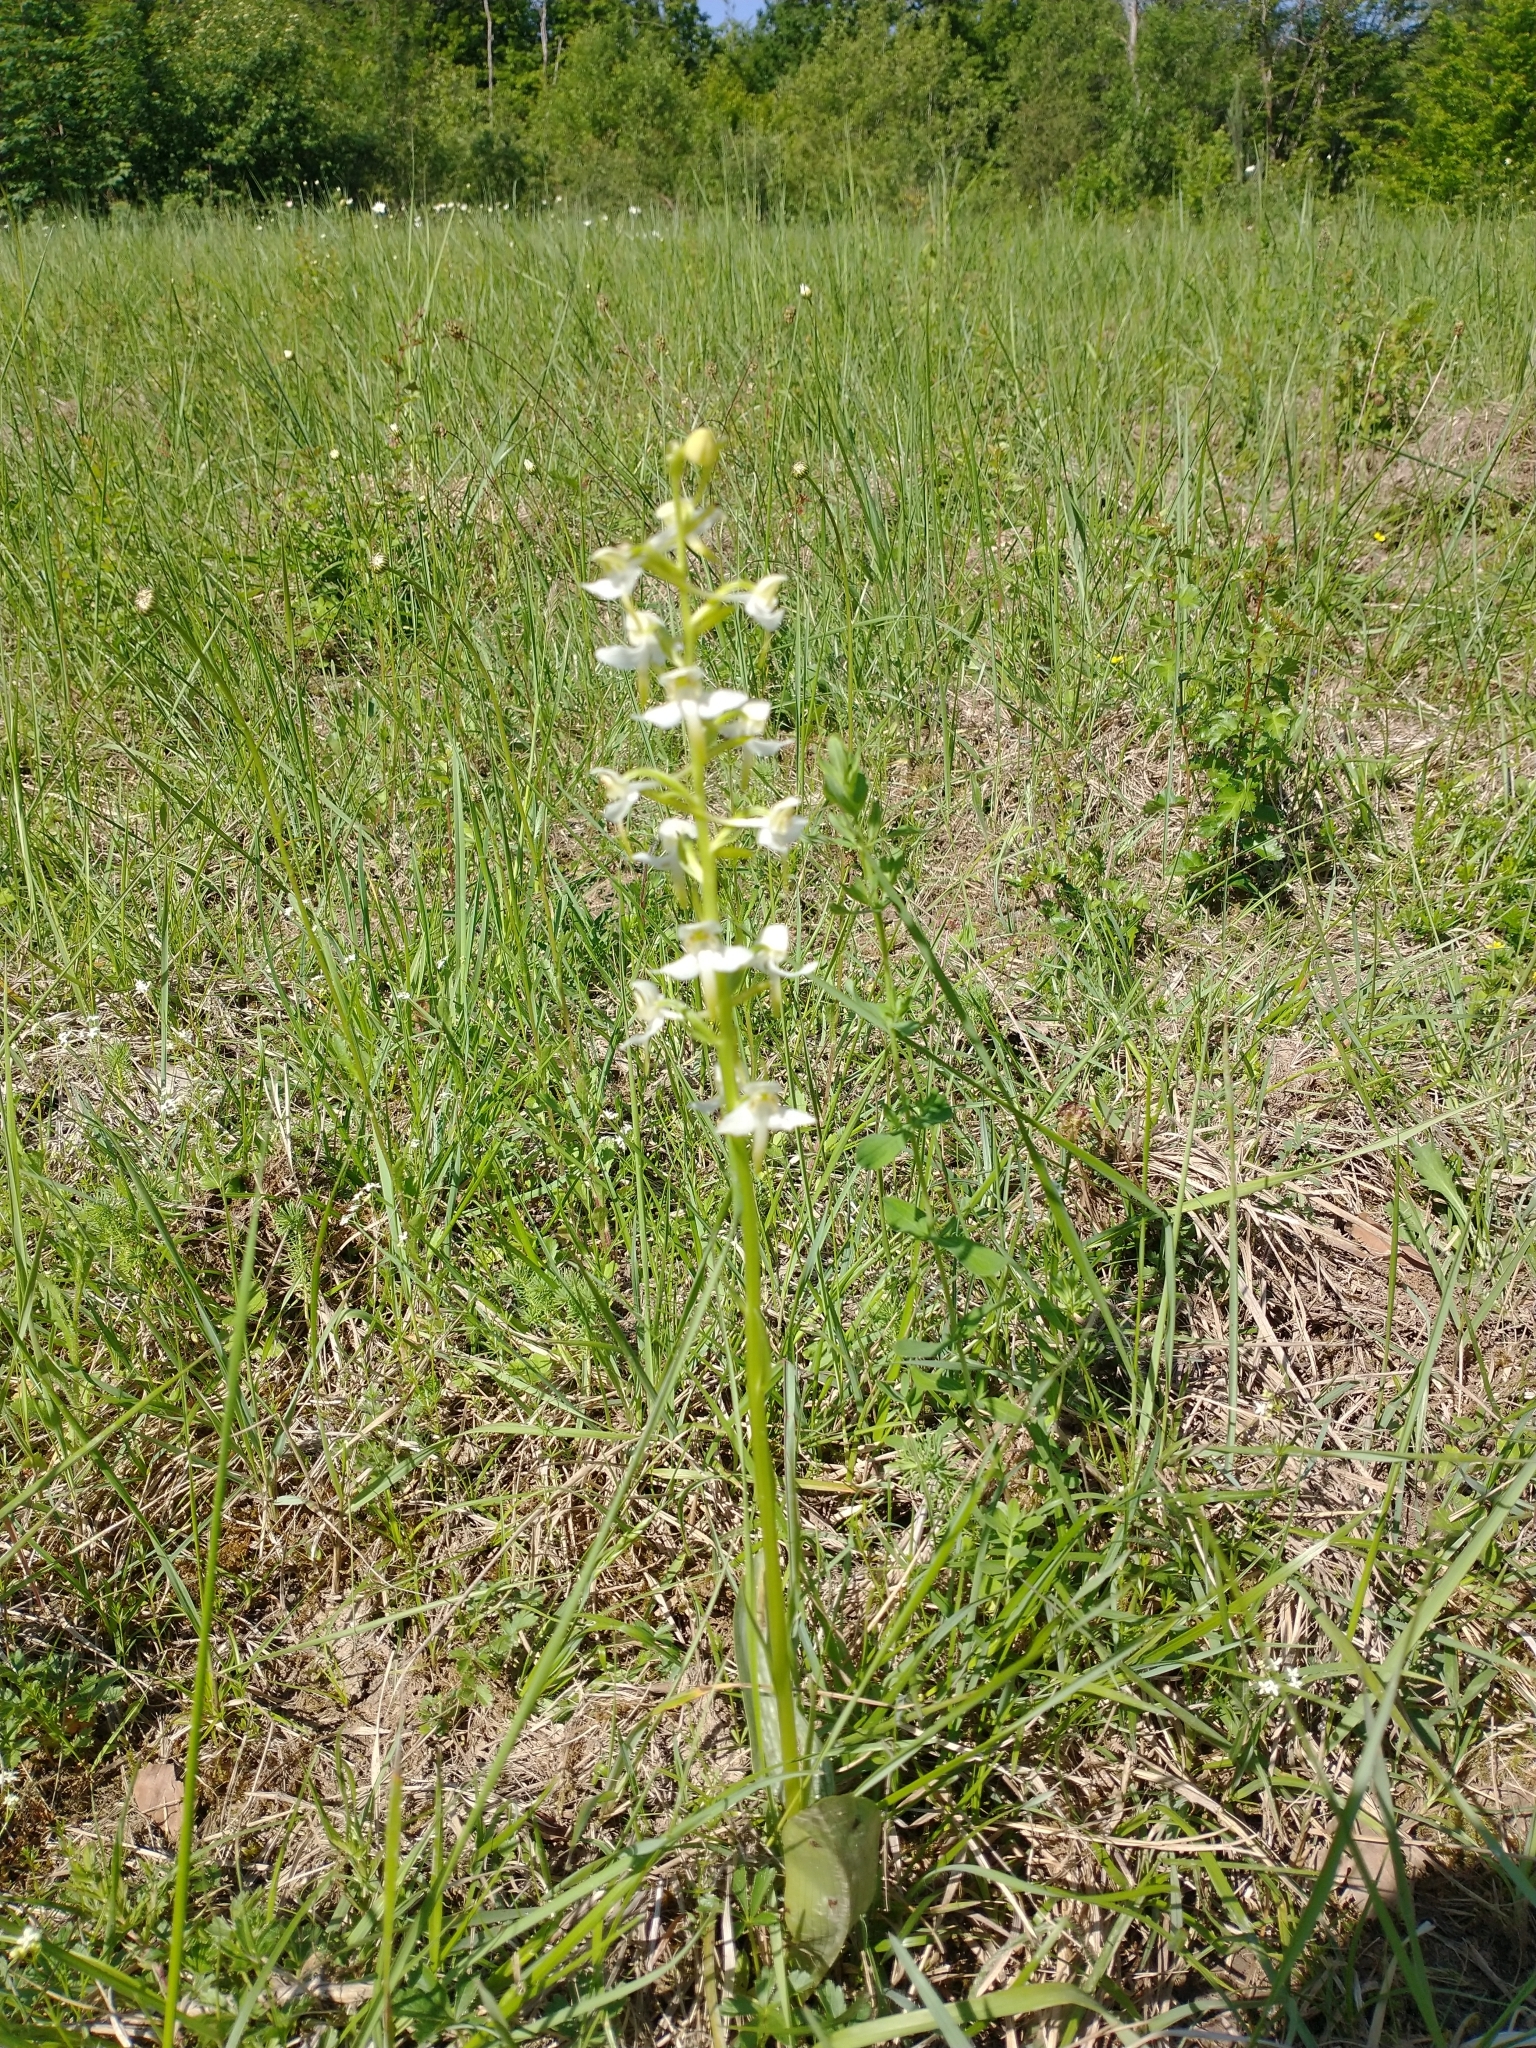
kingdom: Plantae
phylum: Tracheophyta
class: Liliopsida
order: Asparagales
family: Orchidaceae
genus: Platanthera
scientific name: Platanthera chlorantha
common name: Greater butterfly-orchid
